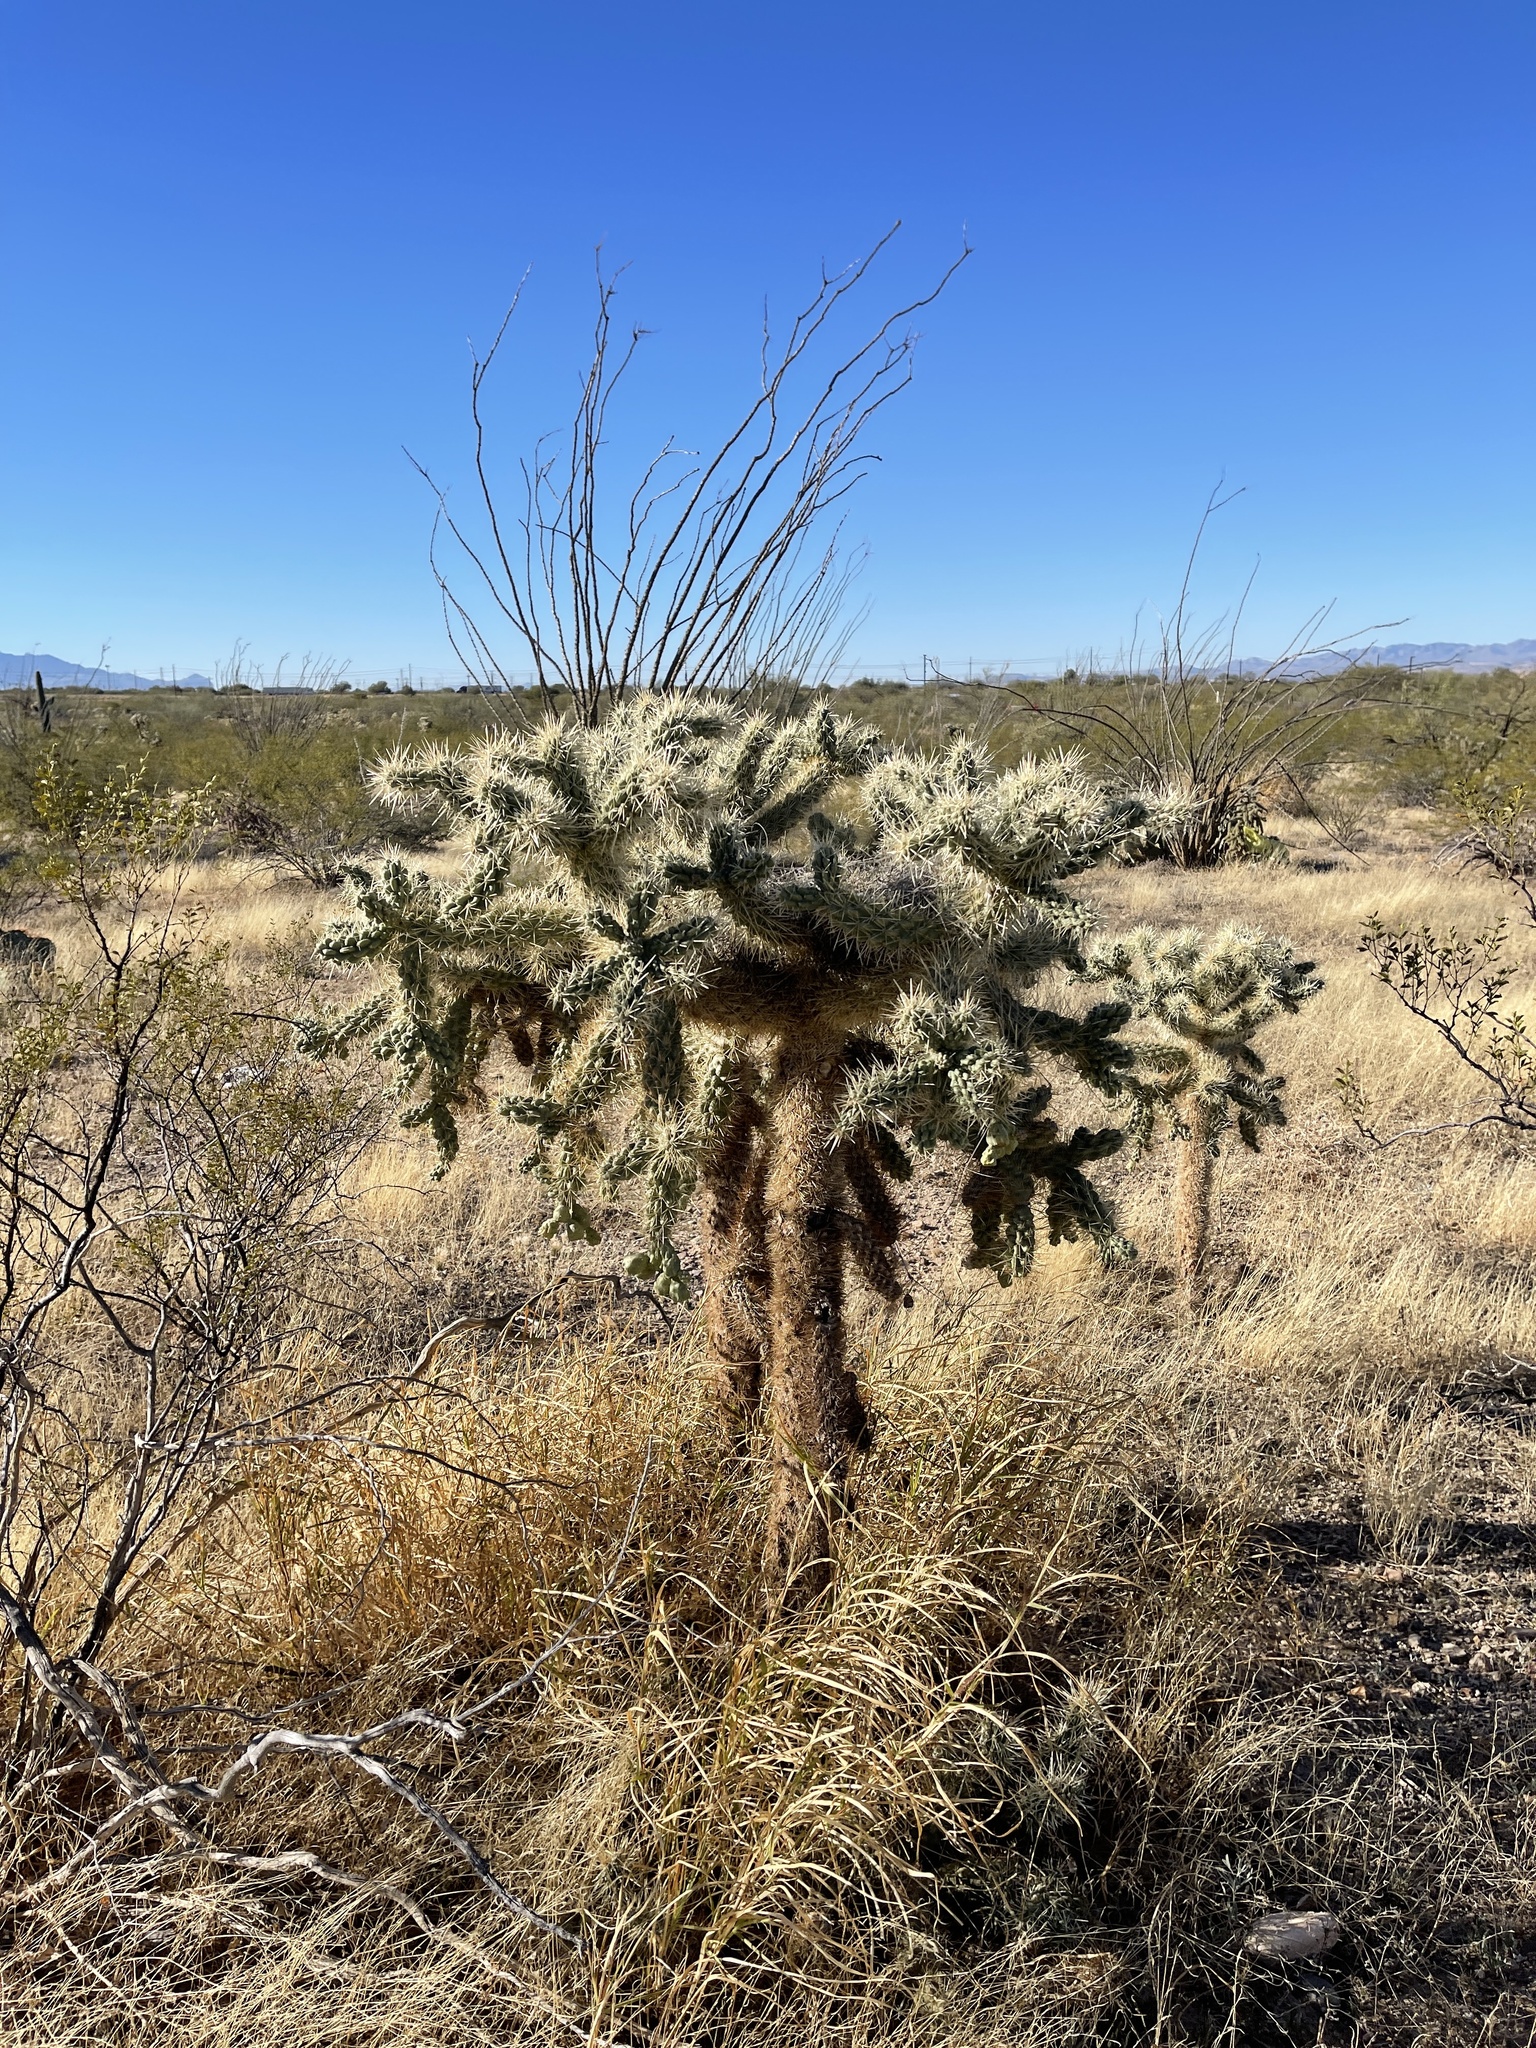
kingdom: Plantae
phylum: Tracheophyta
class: Magnoliopsida
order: Caryophyllales
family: Cactaceae
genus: Cylindropuntia
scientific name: Cylindropuntia fulgida
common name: Jumping cholla
